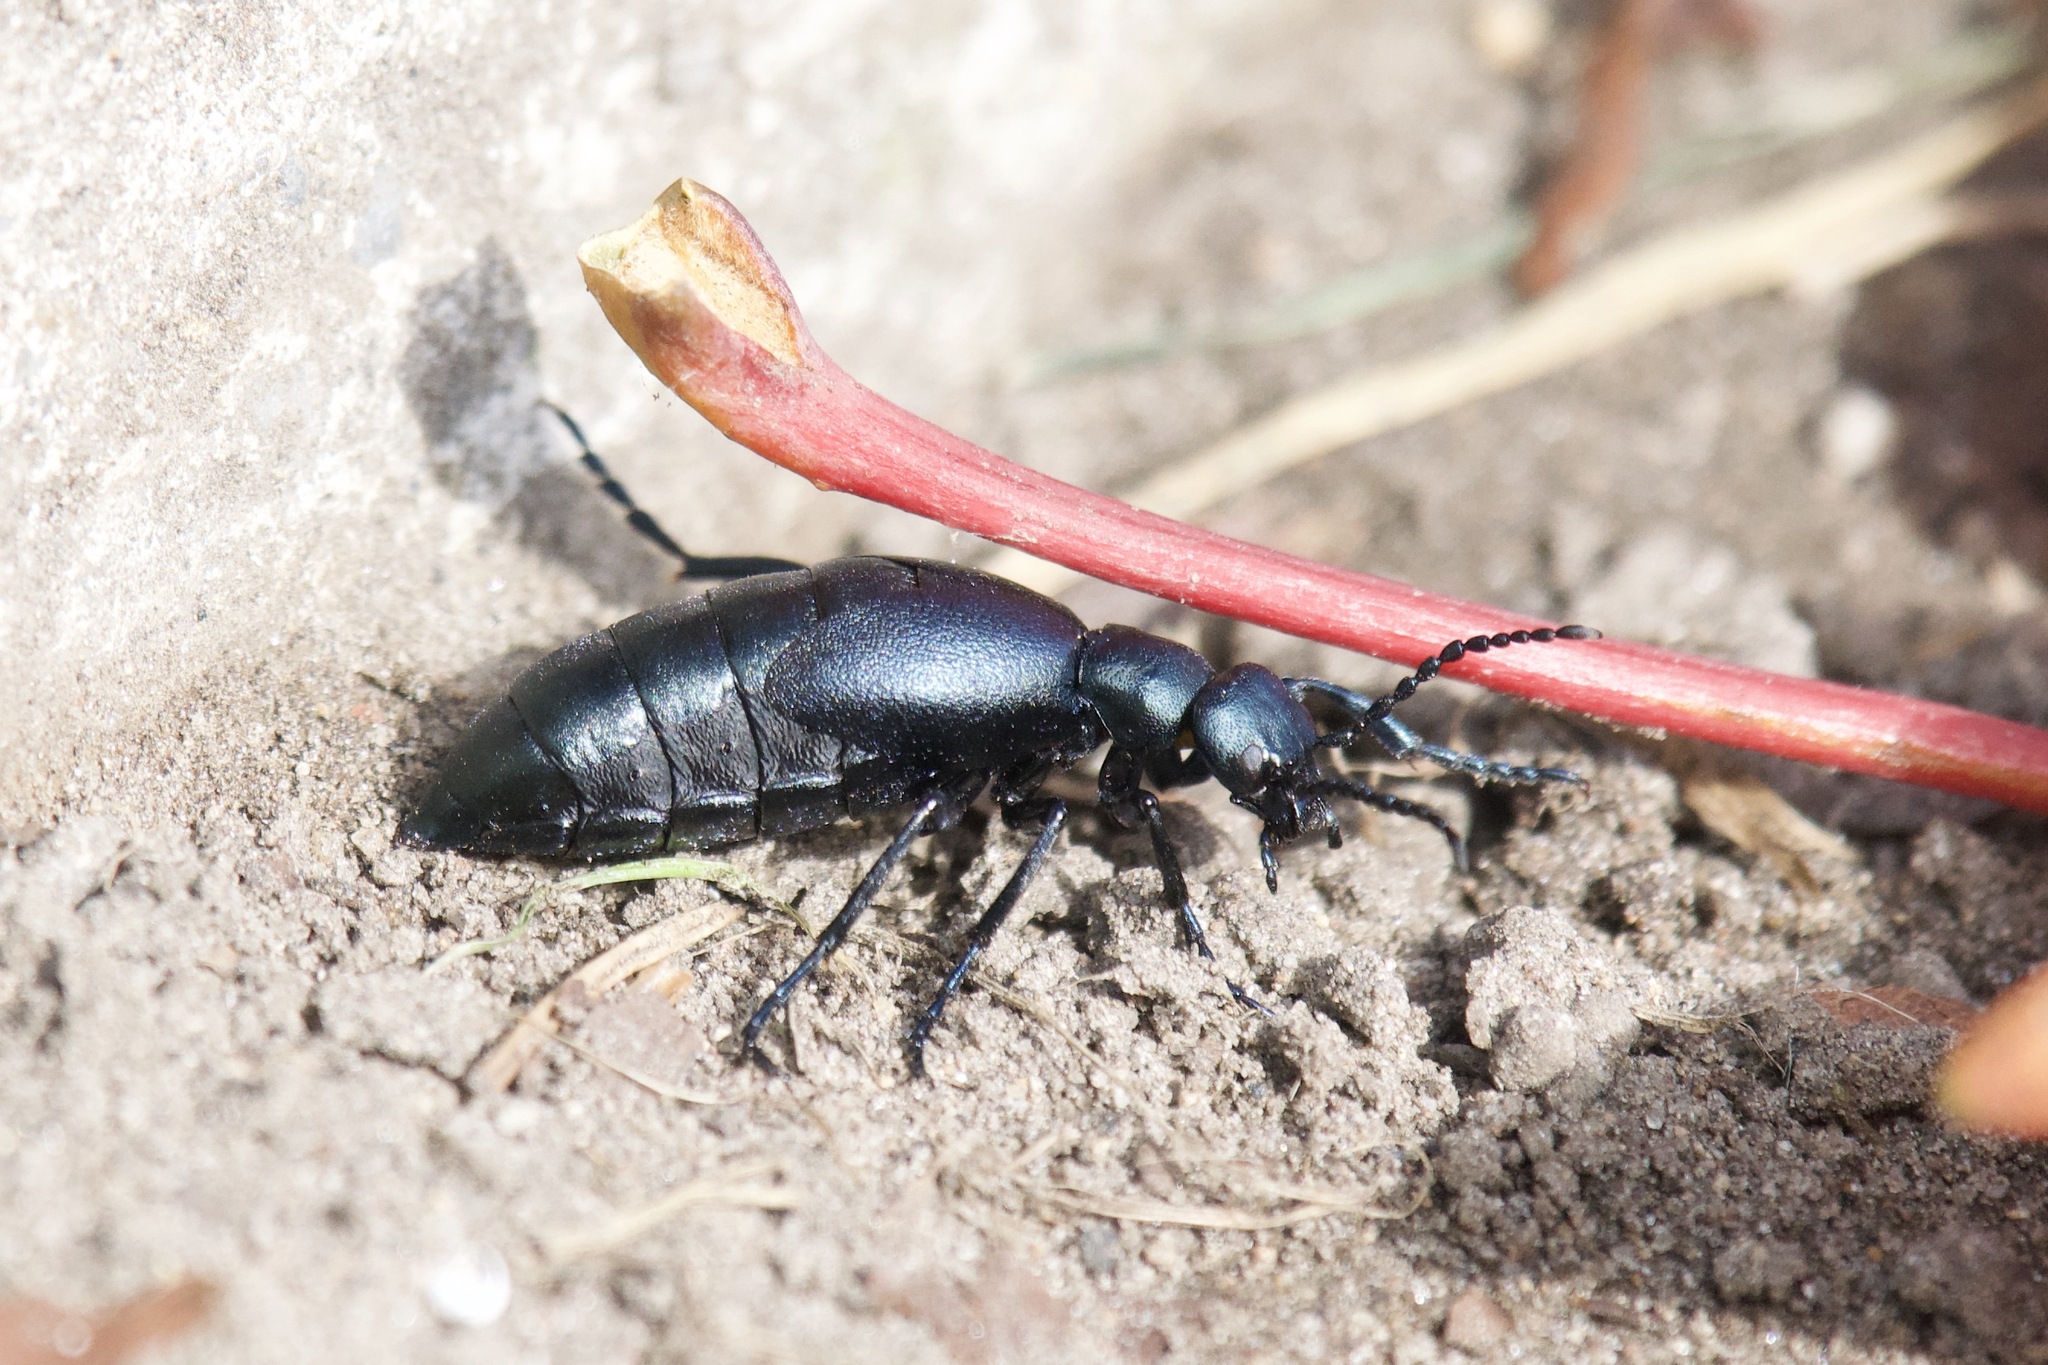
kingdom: Animalia
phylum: Arthropoda
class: Insecta
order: Coleoptera
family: Meloidae
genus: Meloe
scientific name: Meloe campanicollis
